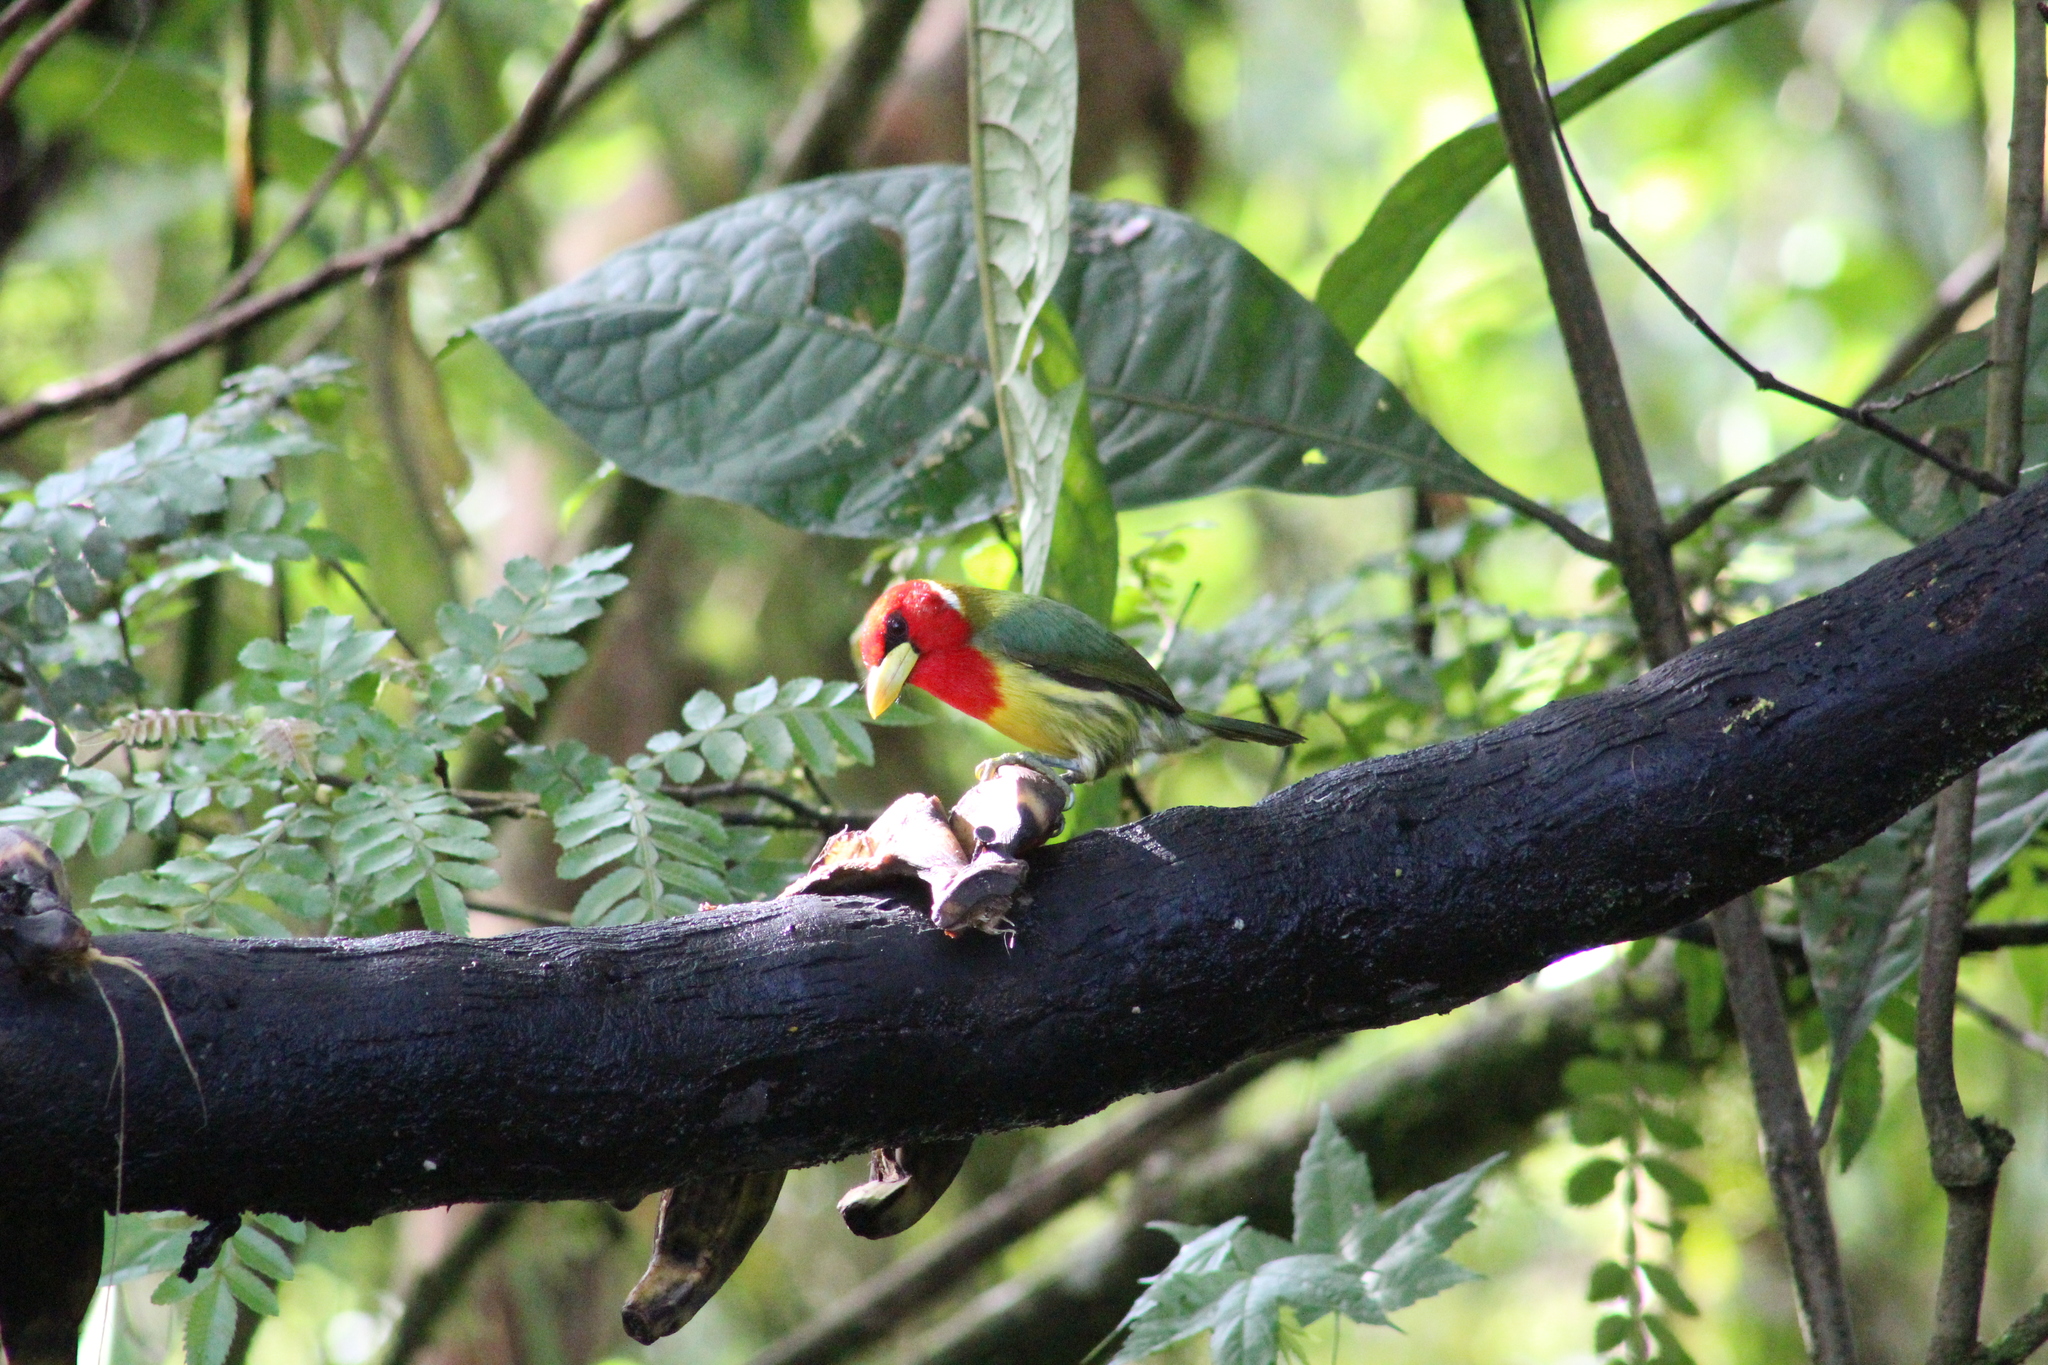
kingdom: Animalia
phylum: Chordata
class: Aves
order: Piciformes
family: Capitonidae
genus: Eubucco
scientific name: Eubucco bourcierii
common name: Red-headed barbet
